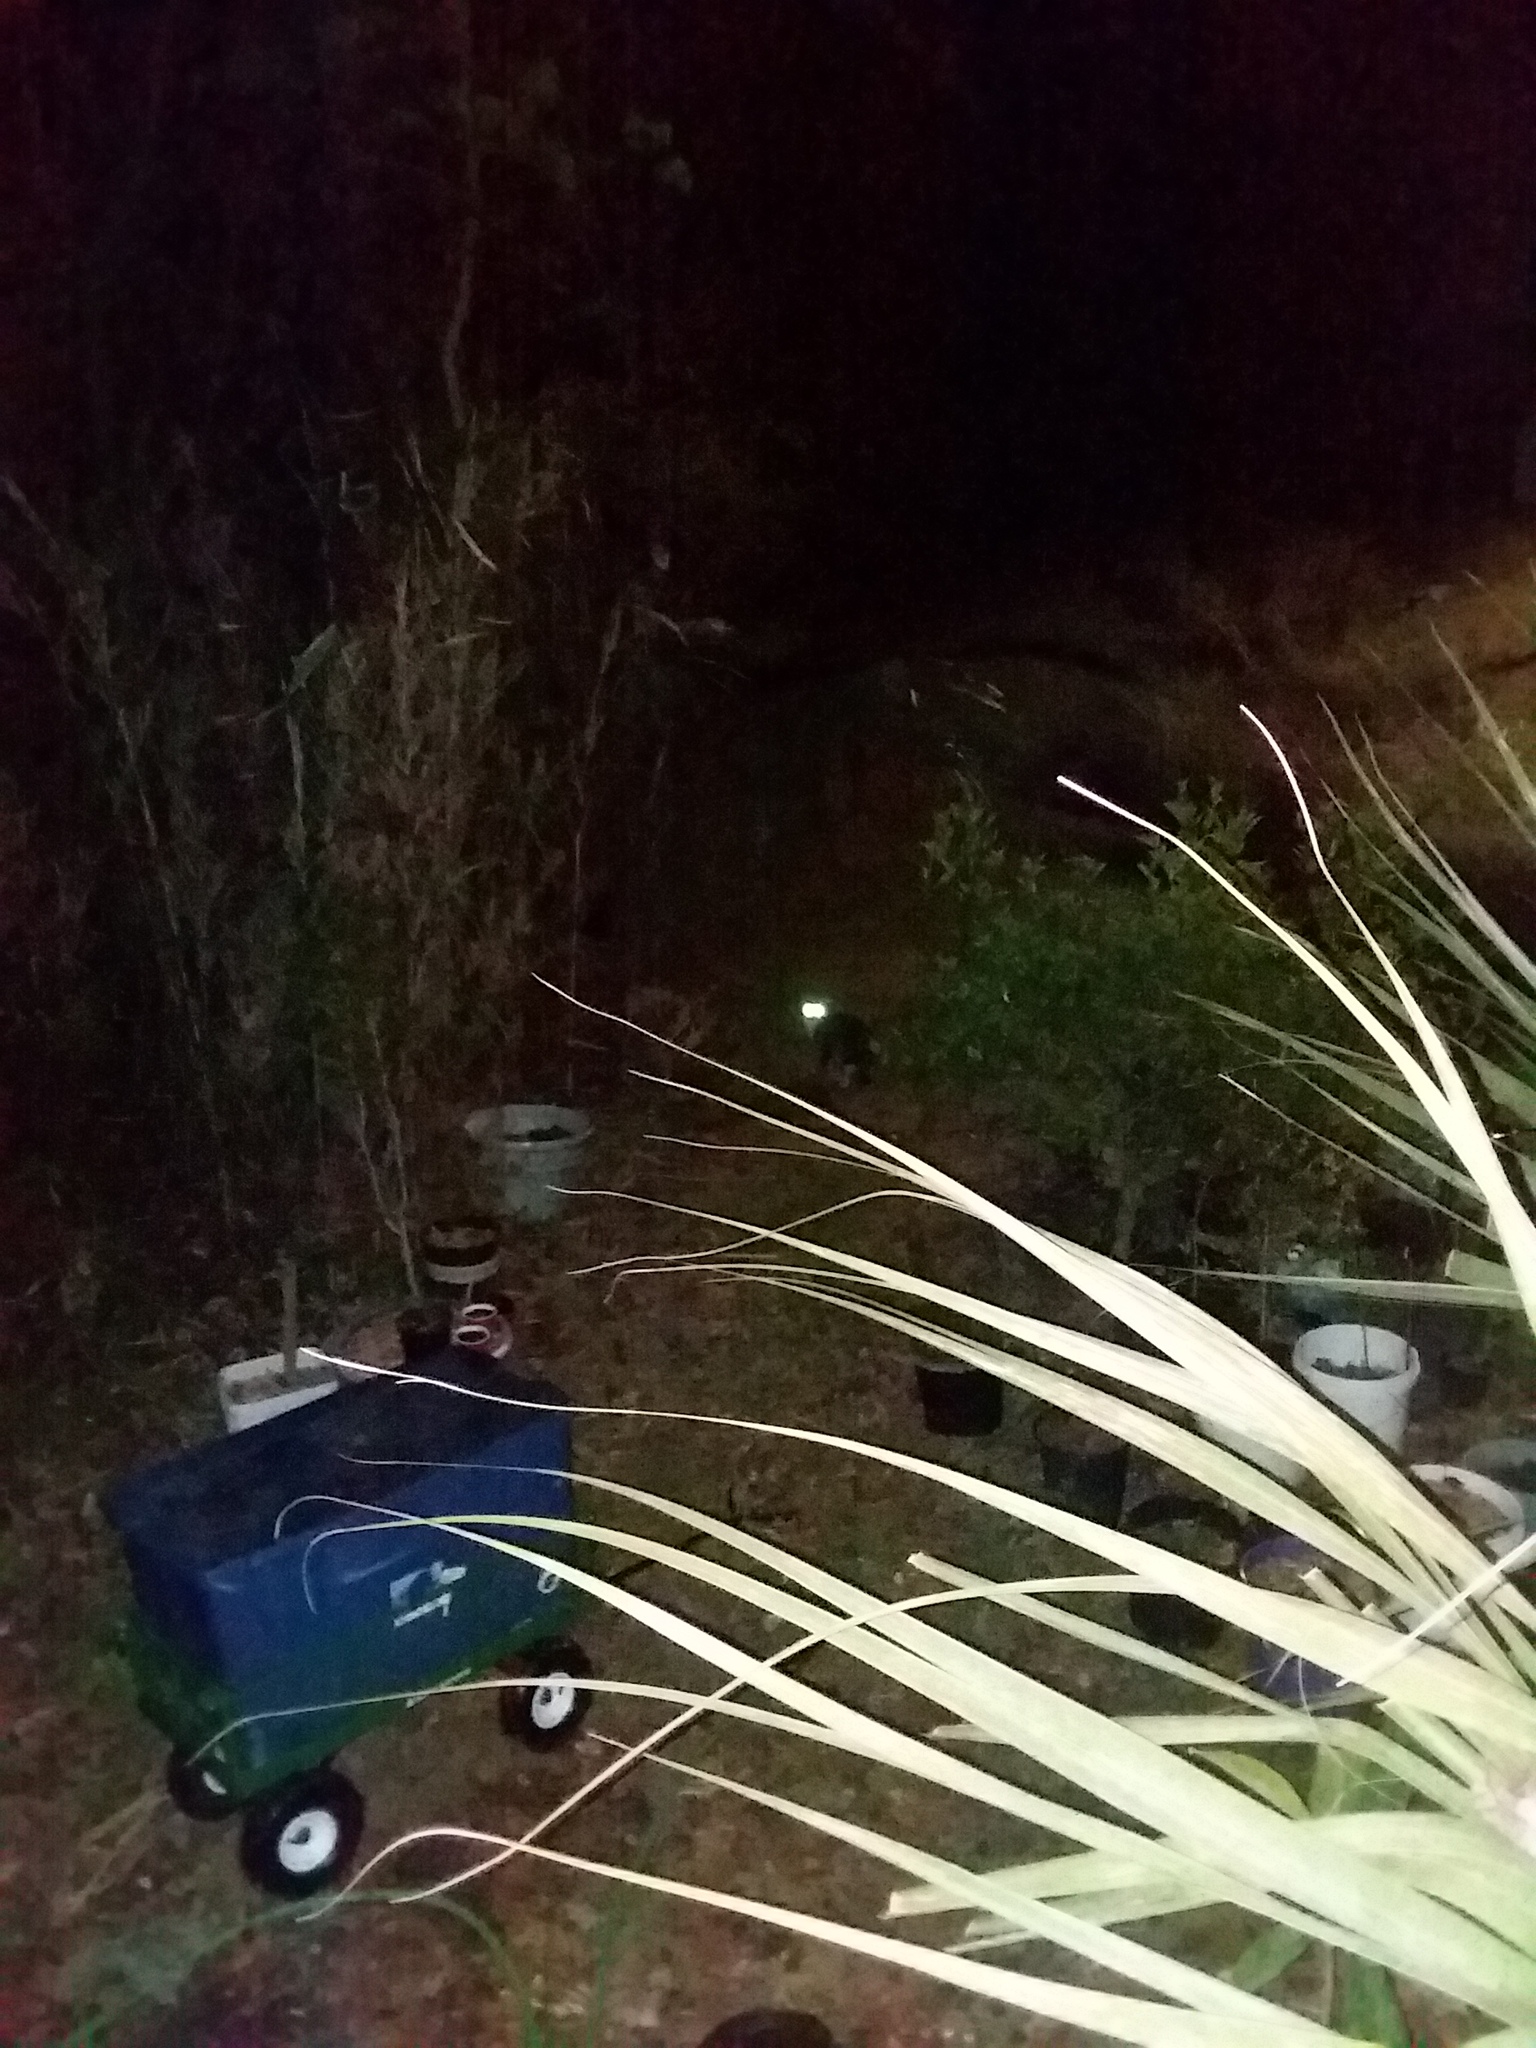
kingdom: Animalia
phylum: Chordata
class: Mammalia
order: Carnivora
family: Felidae
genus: Felis
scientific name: Felis catus
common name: Domestic cat
